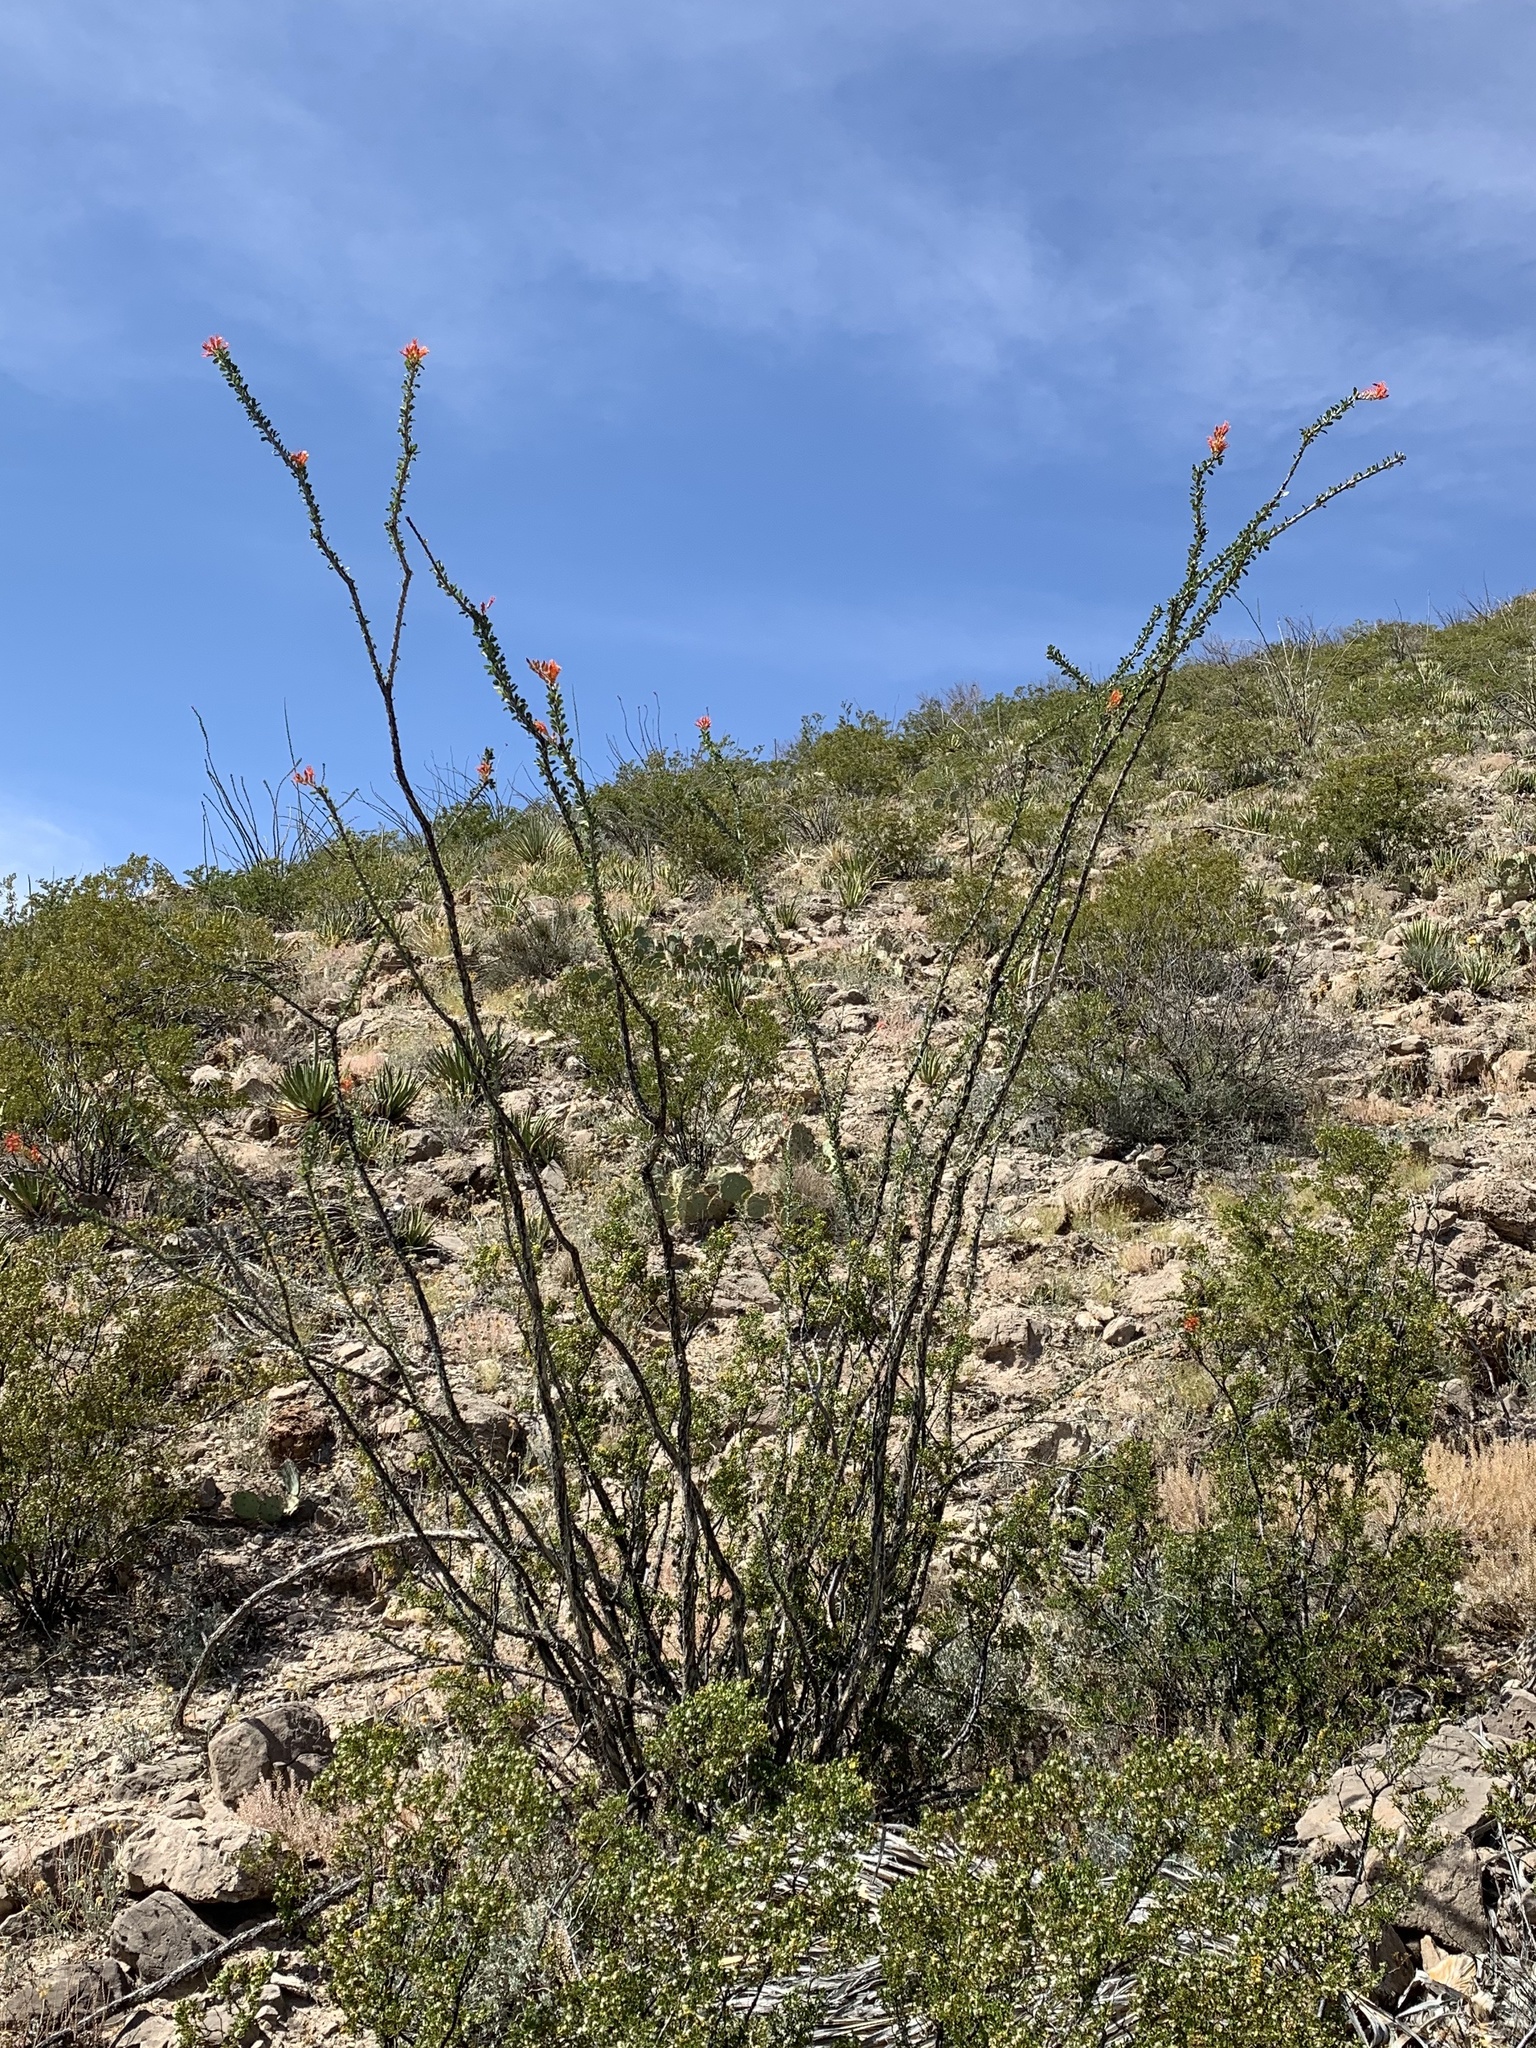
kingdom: Plantae
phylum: Tracheophyta
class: Magnoliopsida
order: Ericales
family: Fouquieriaceae
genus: Fouquieria
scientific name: Fouquieria splendens
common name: Vine-cactus
